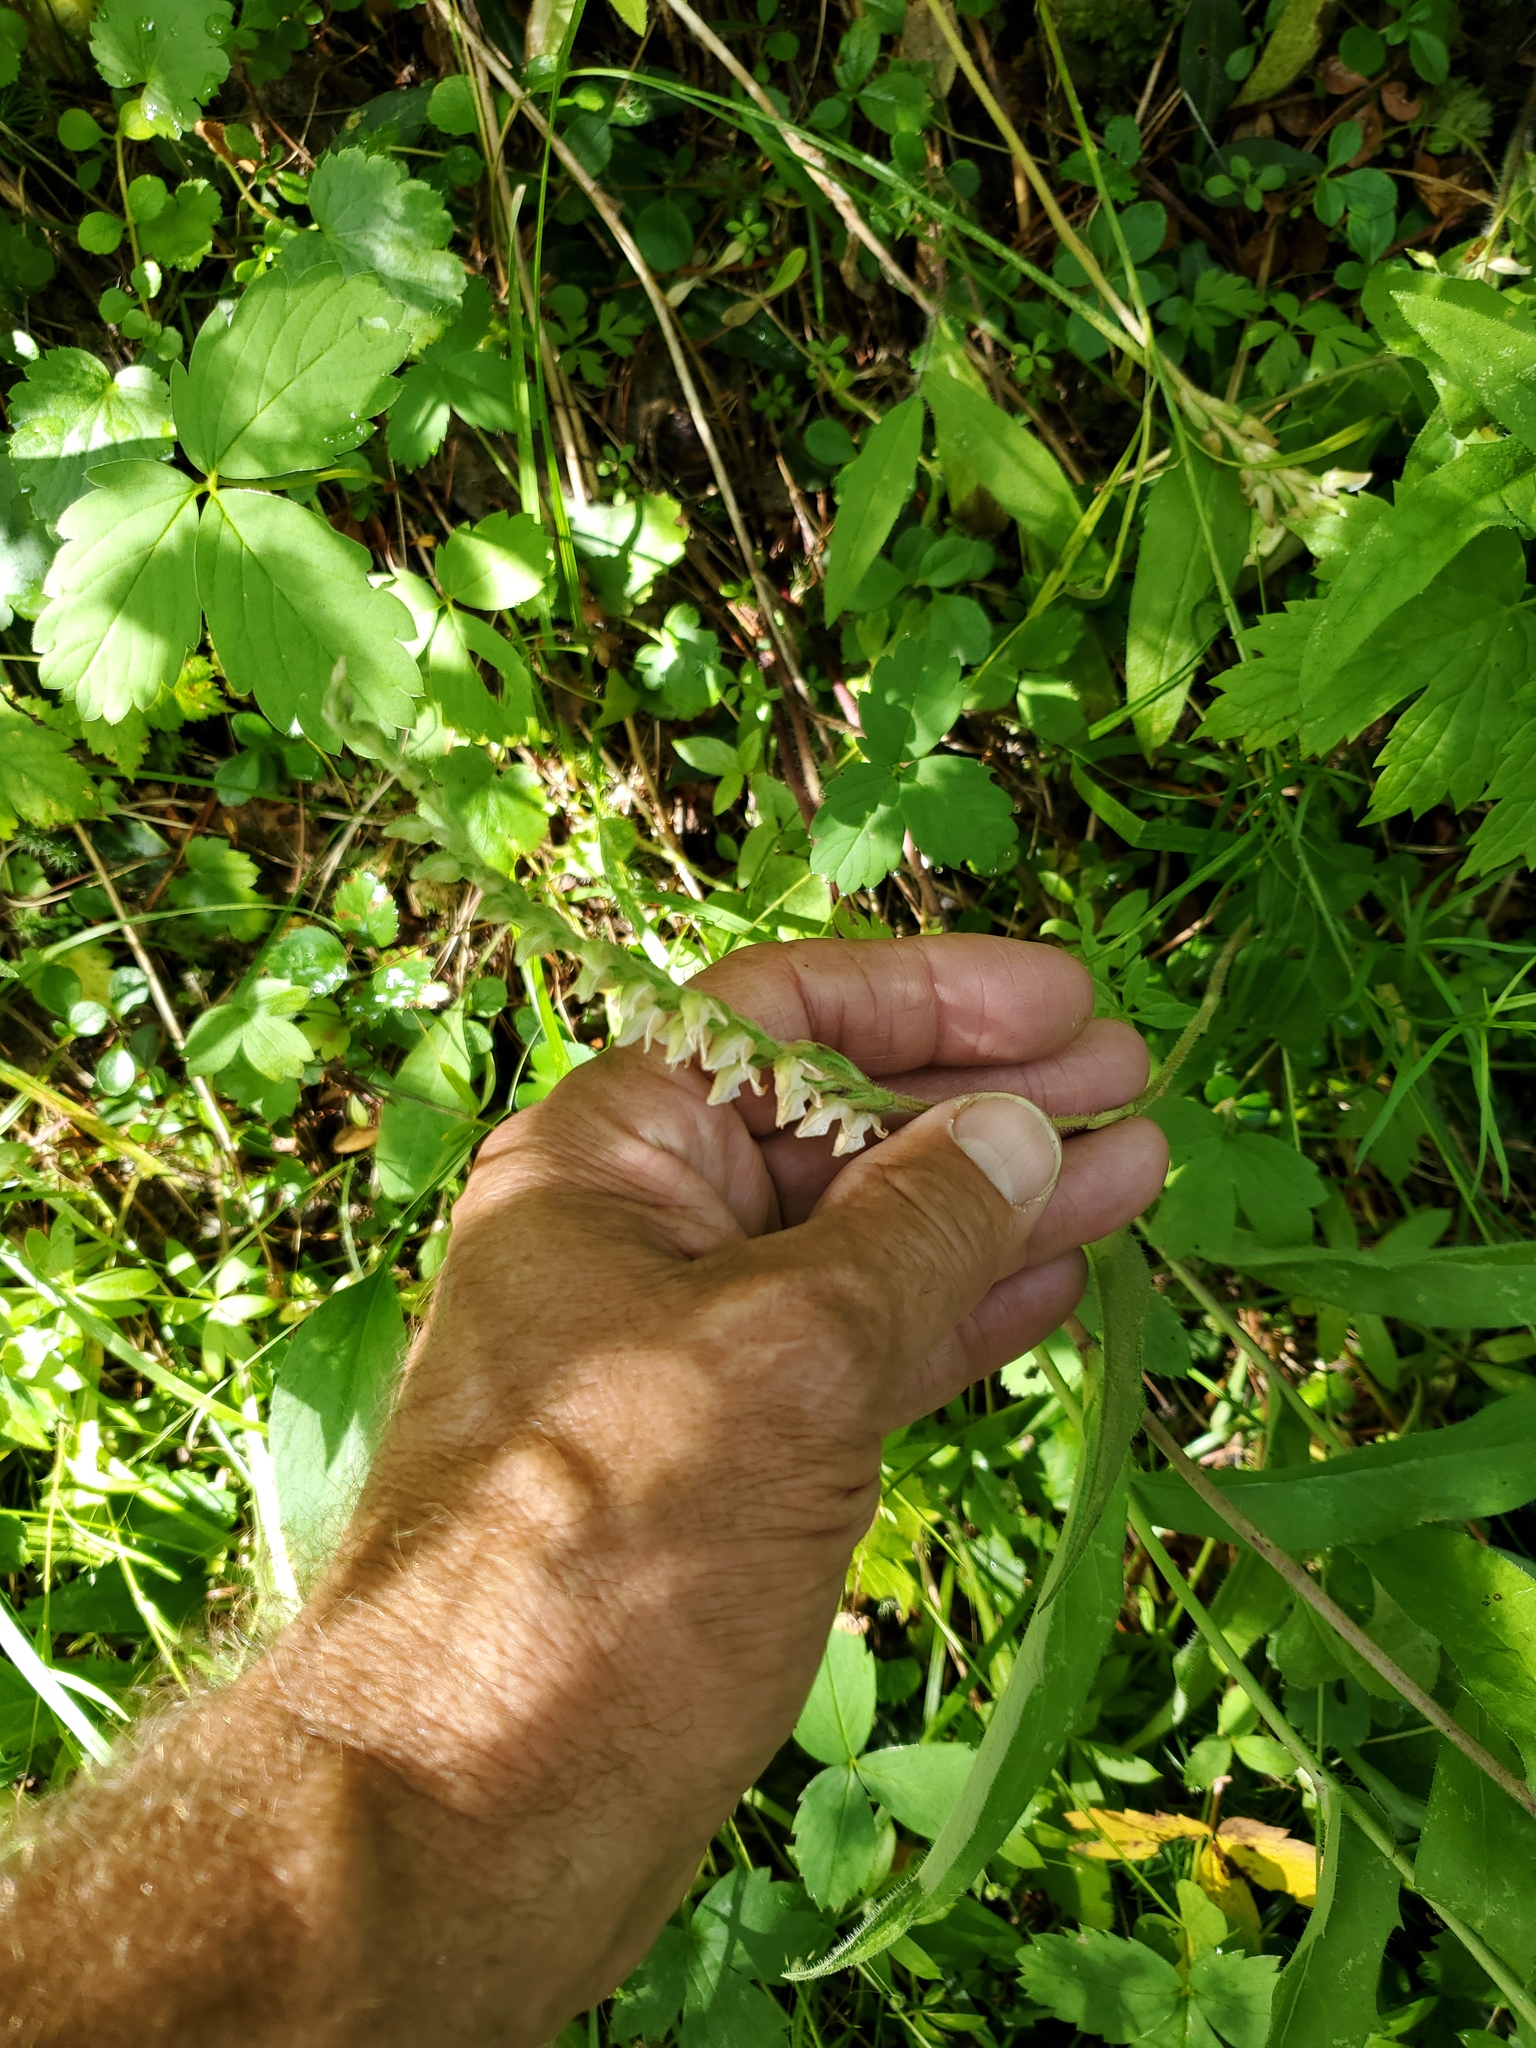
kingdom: Plantae
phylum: Tracheophyta
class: Liliopsida
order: Asparagales
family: Orchidaceae
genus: Goodyera
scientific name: Goodyera oblongifolia
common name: Giant rattlesnake-plantain
